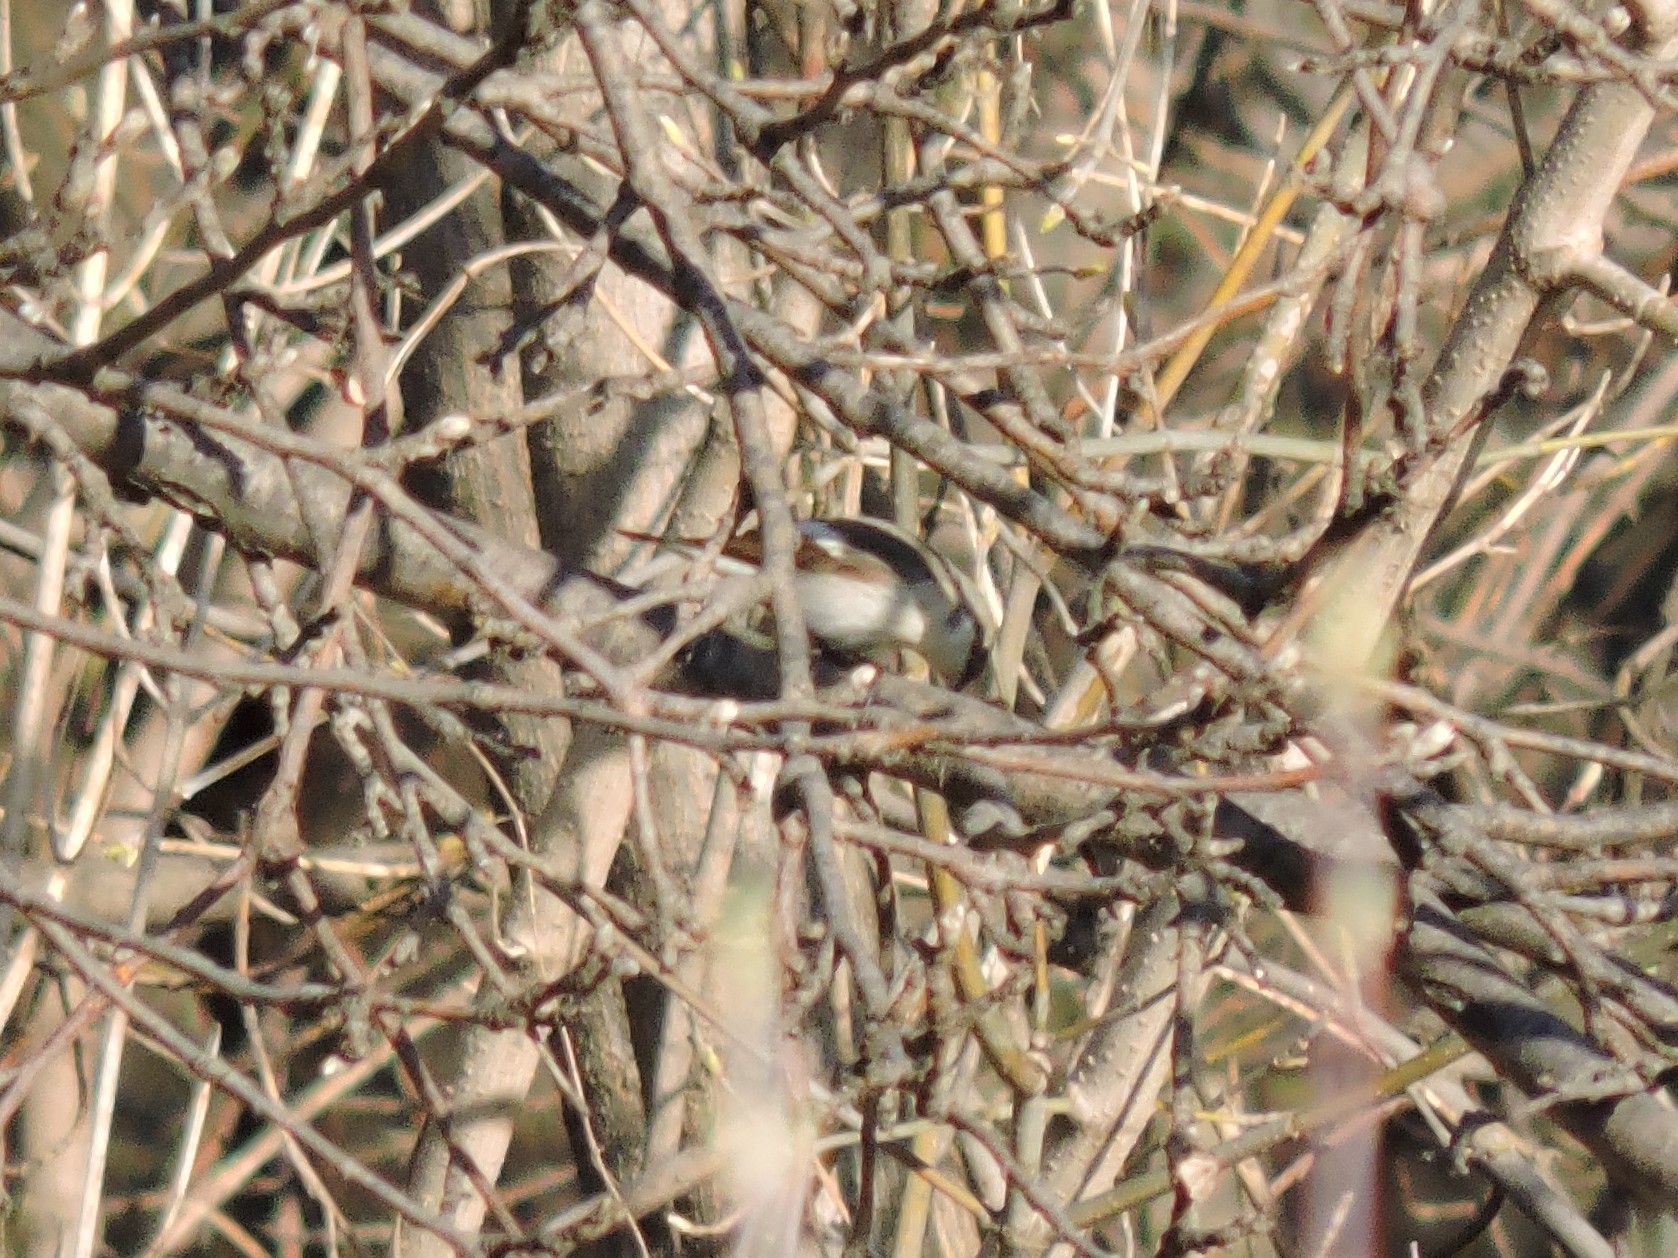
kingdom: Animalia
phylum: Chordata
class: Aves
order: Passeriformes
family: Muscicapidae
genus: Ficedula
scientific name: Ficedula hypoleuca
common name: European pied flycatcher
